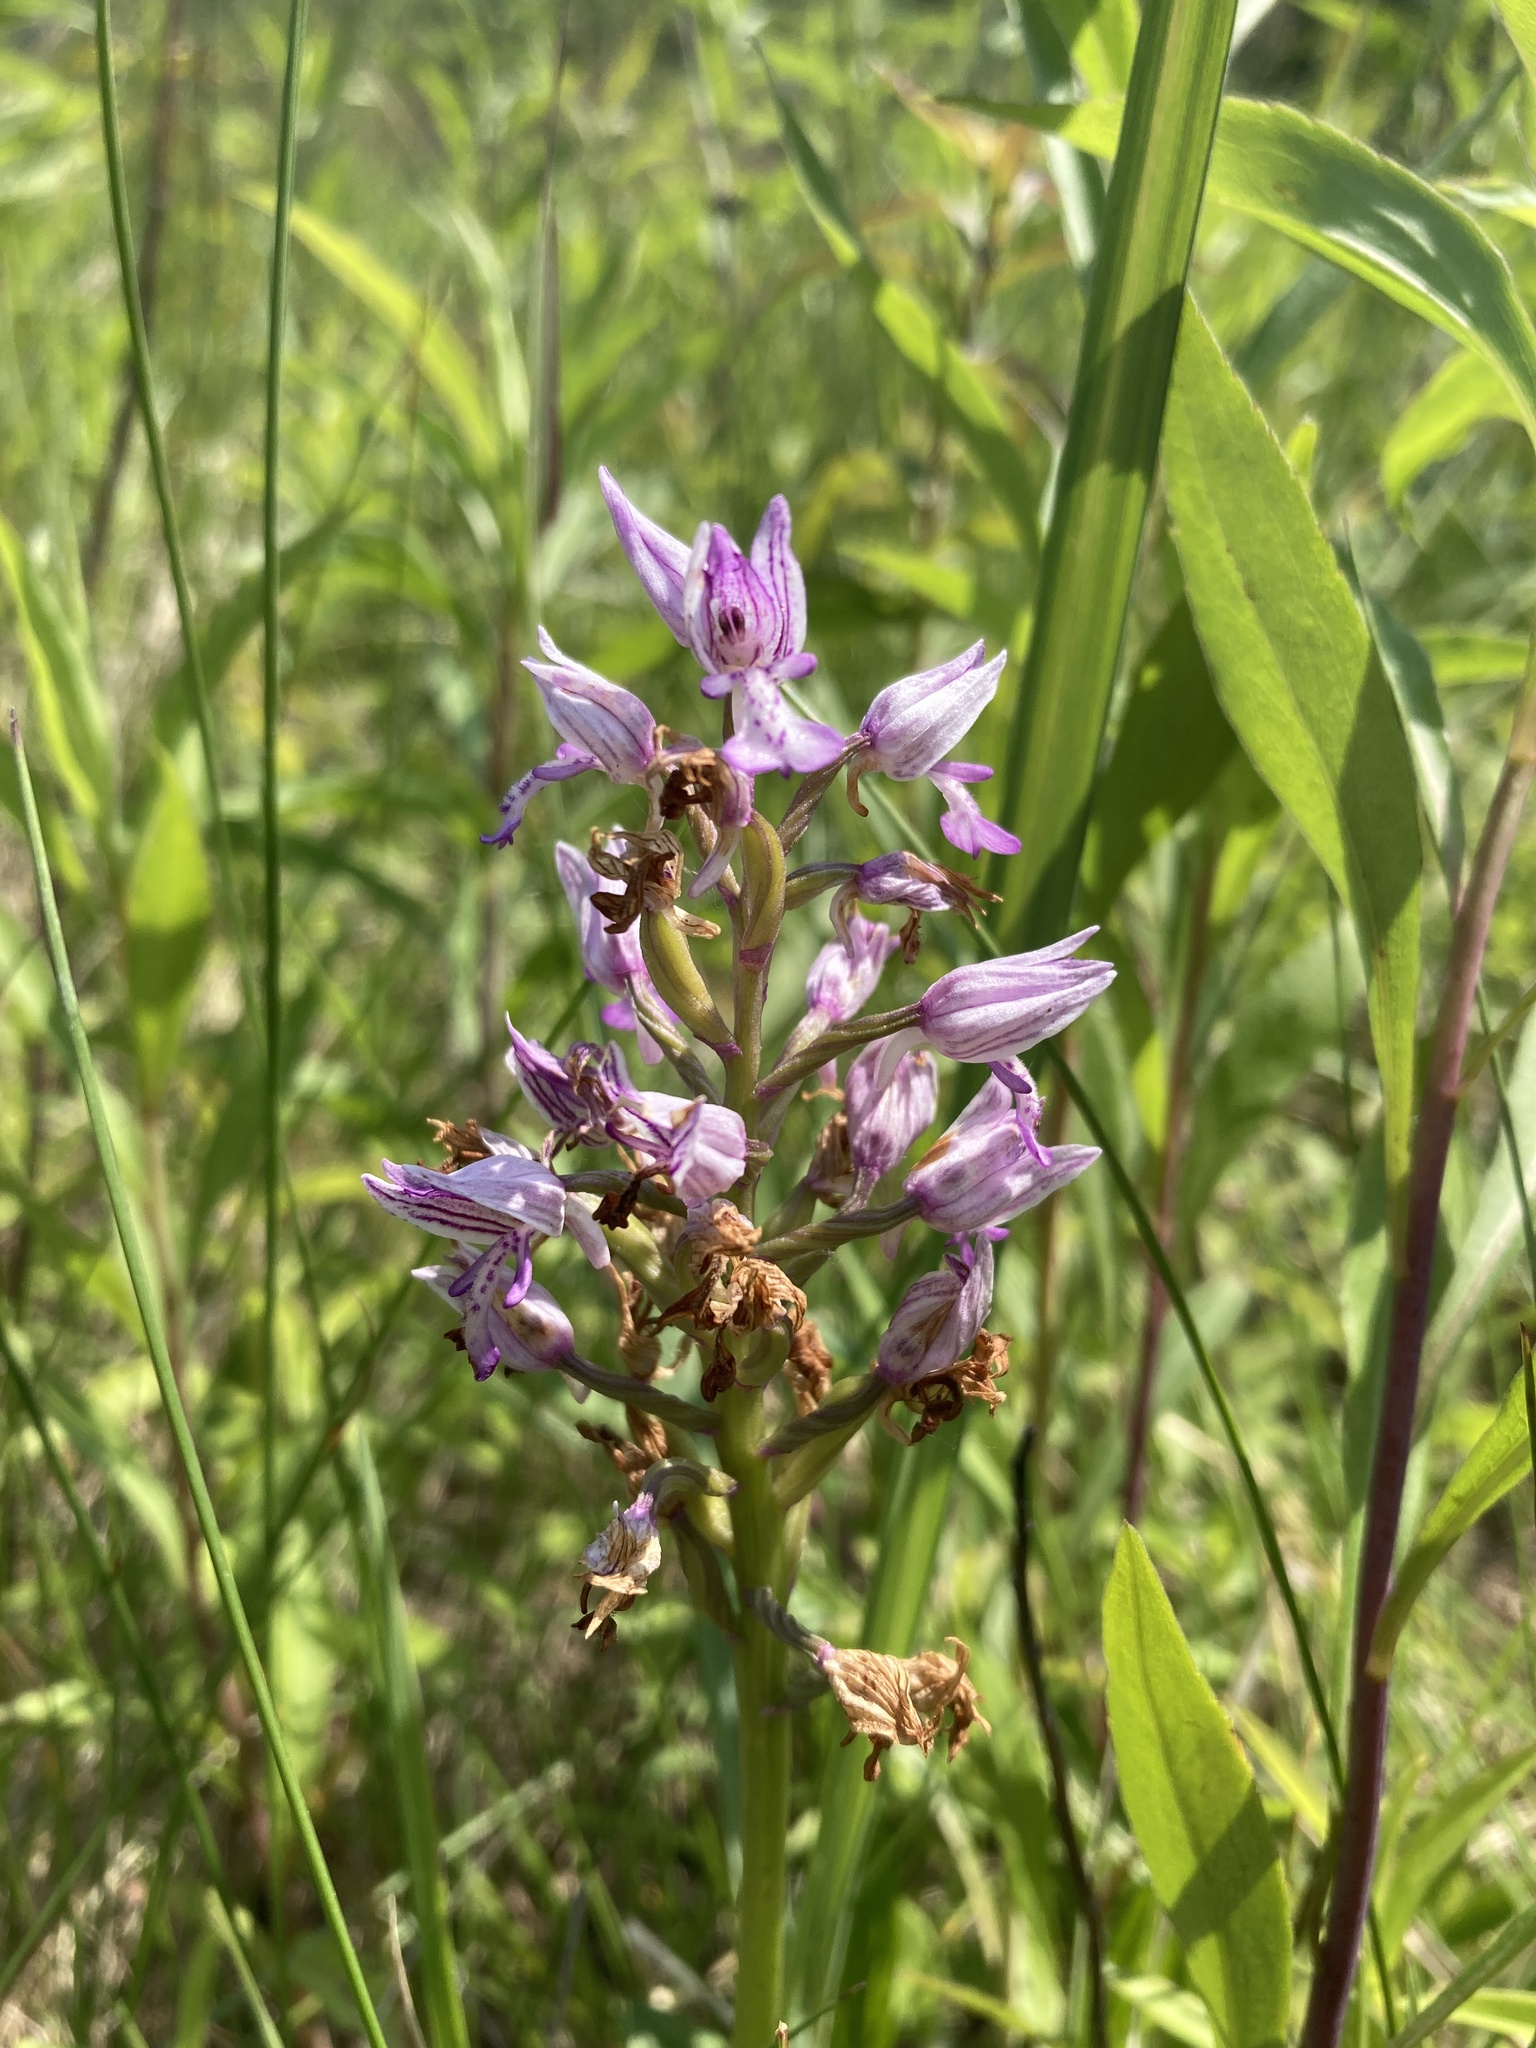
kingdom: Plantae
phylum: Tracheophyta
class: Liliopsida
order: Asparagales
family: Orchidaceae
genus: Orchis
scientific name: Orchis militaris
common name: Military orchid
